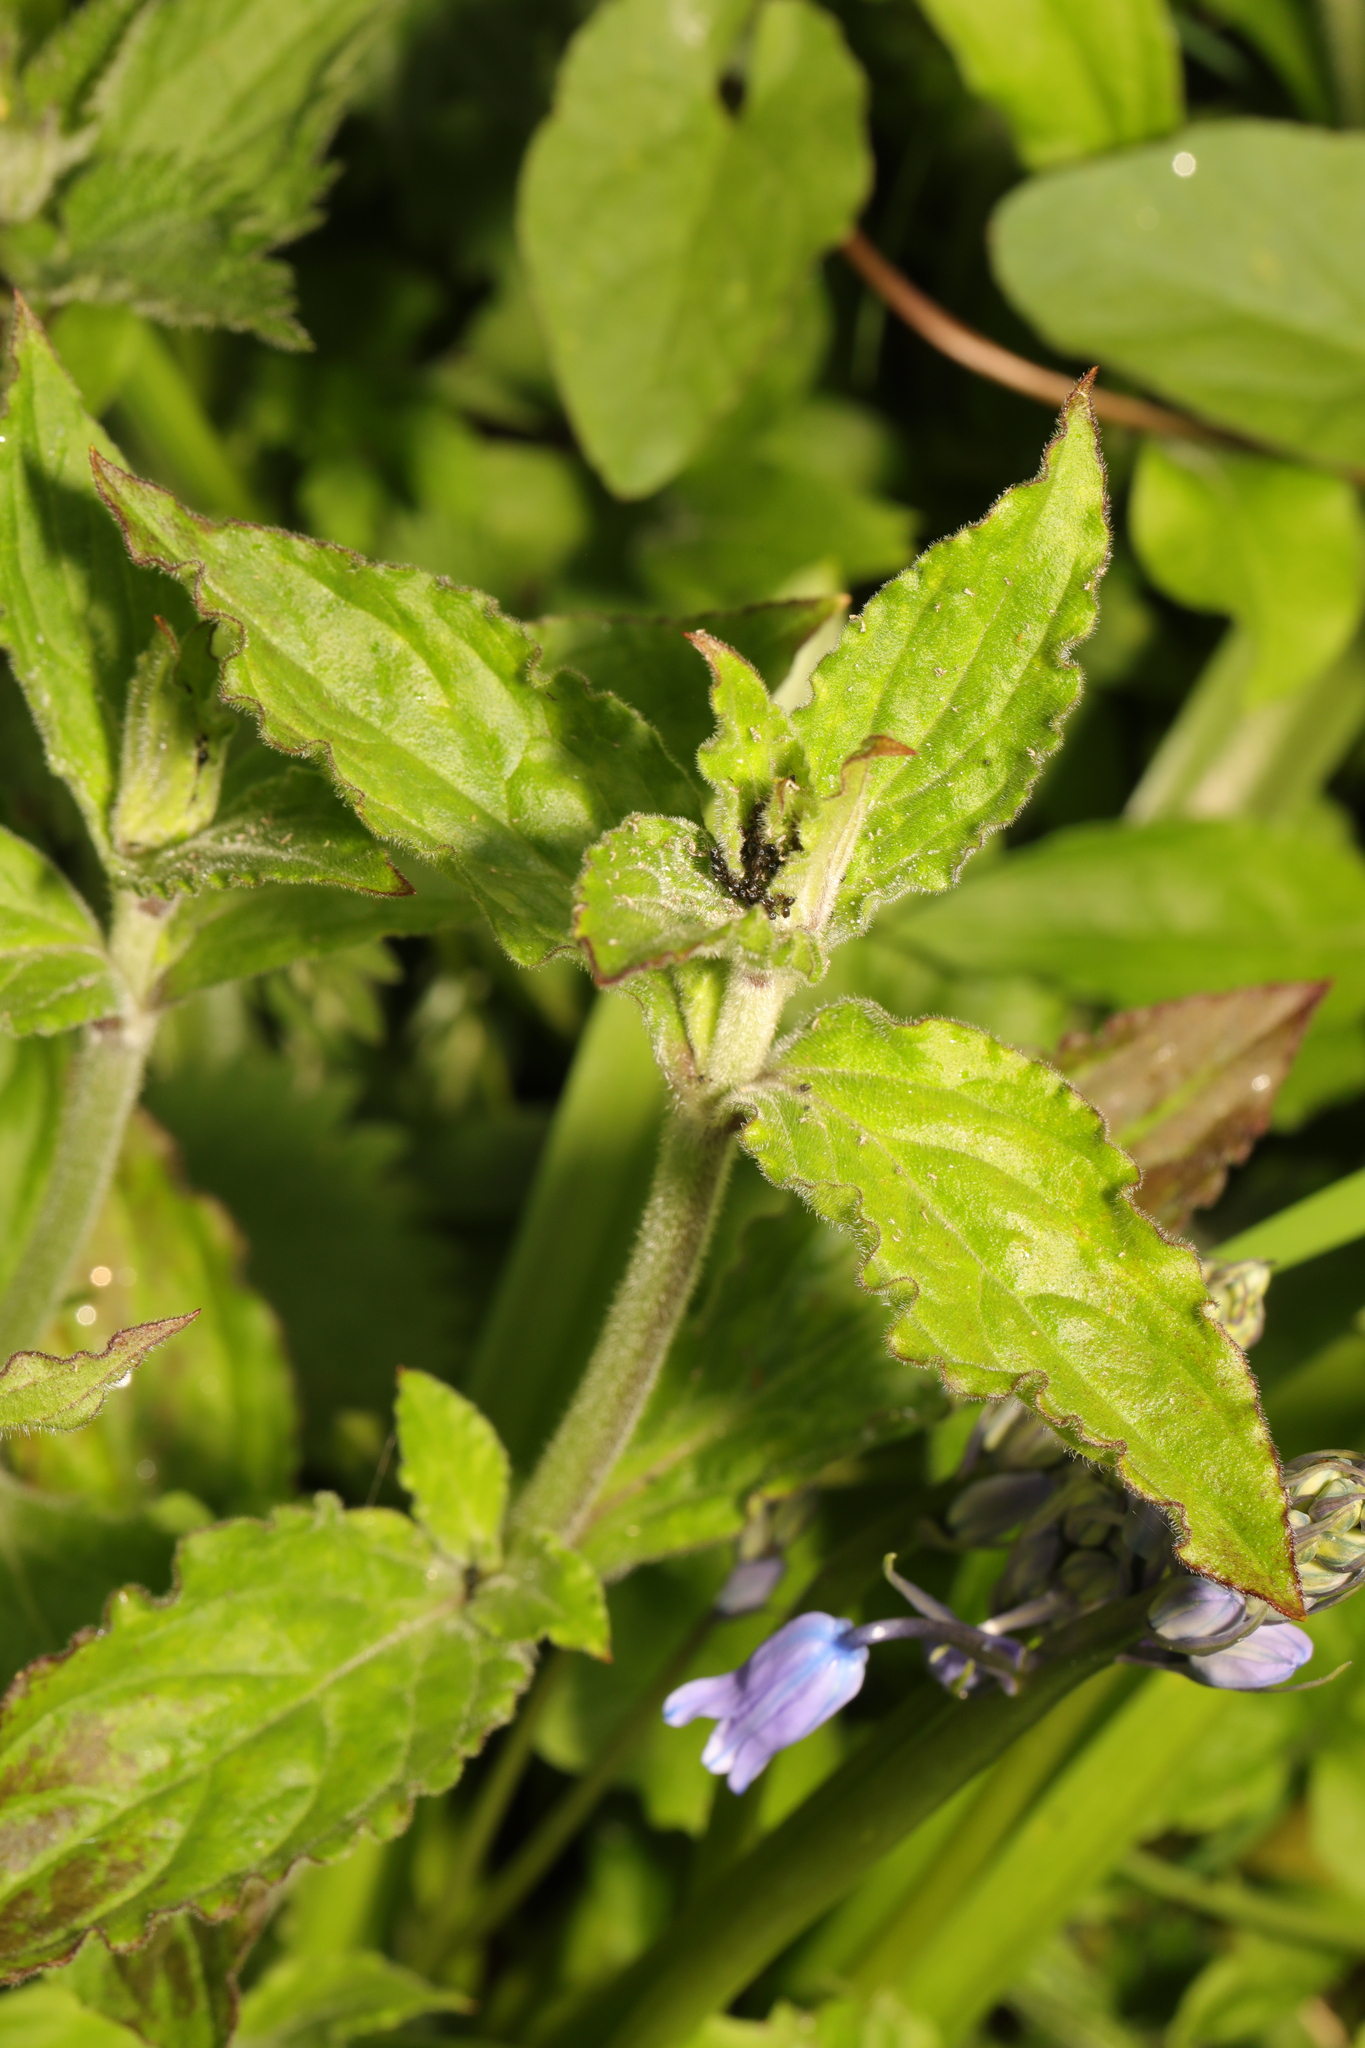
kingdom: Plantae
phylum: Tracheophyta
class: Magnoliopsida
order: Caryophyllales
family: Caryophyllaceae
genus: Silene
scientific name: Silene dioica
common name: Red campion
